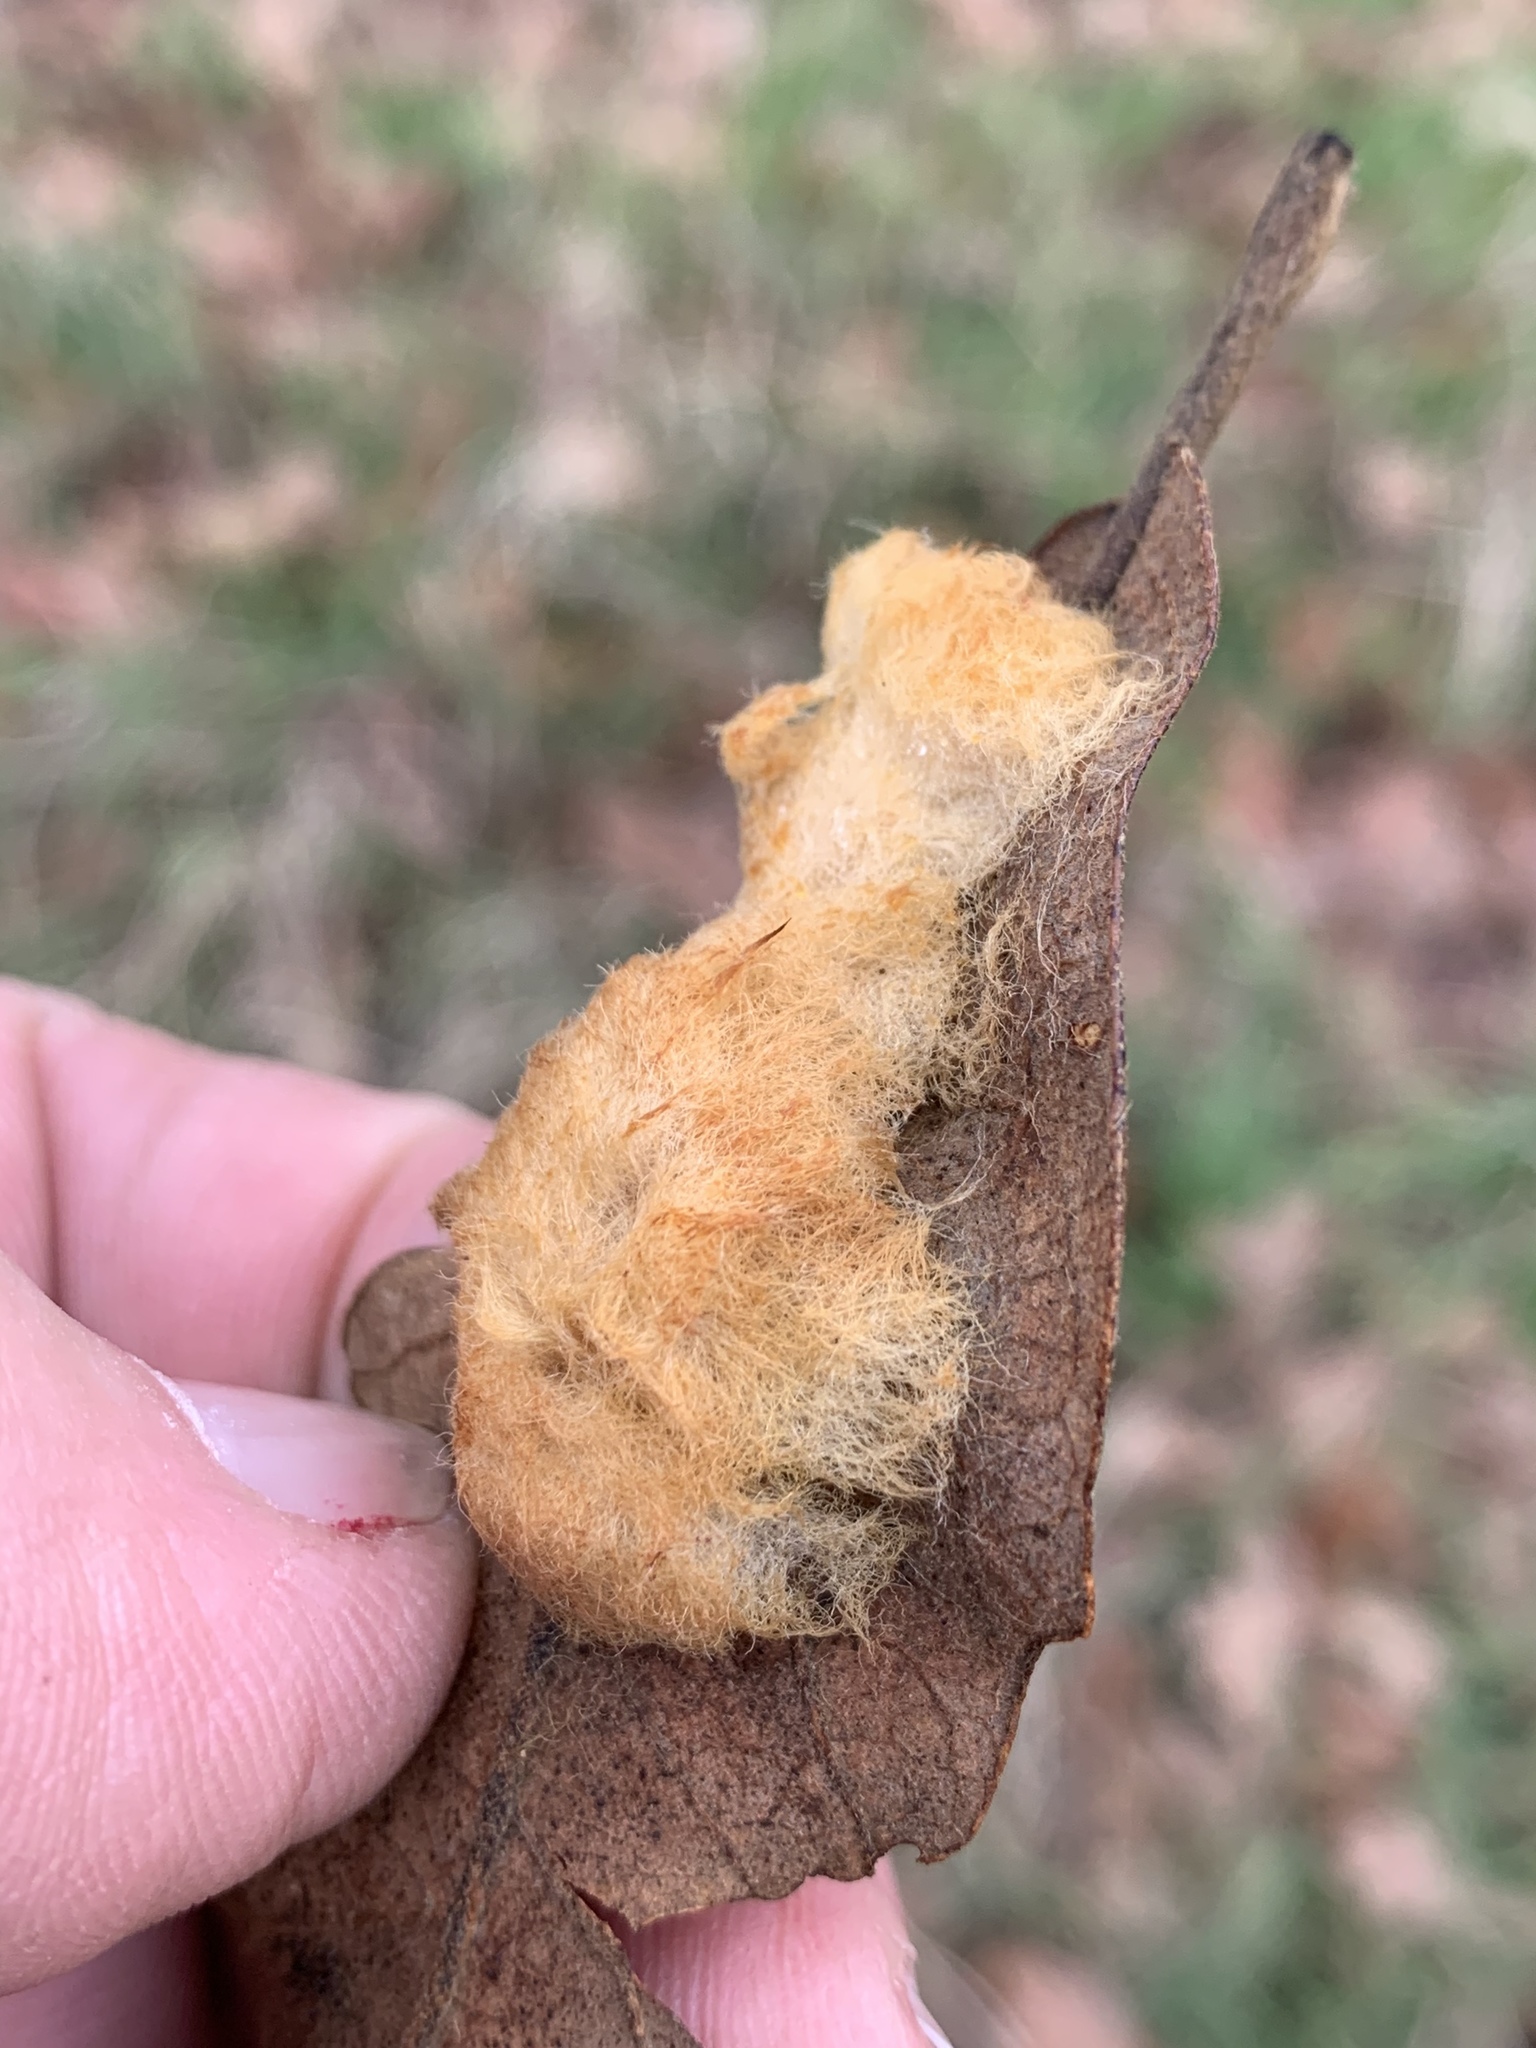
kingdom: Animalia
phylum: Arthropoda
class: Insecta
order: Hymenoptera
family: Cynipidae
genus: Andricus
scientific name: Andricus Druon pattoni
